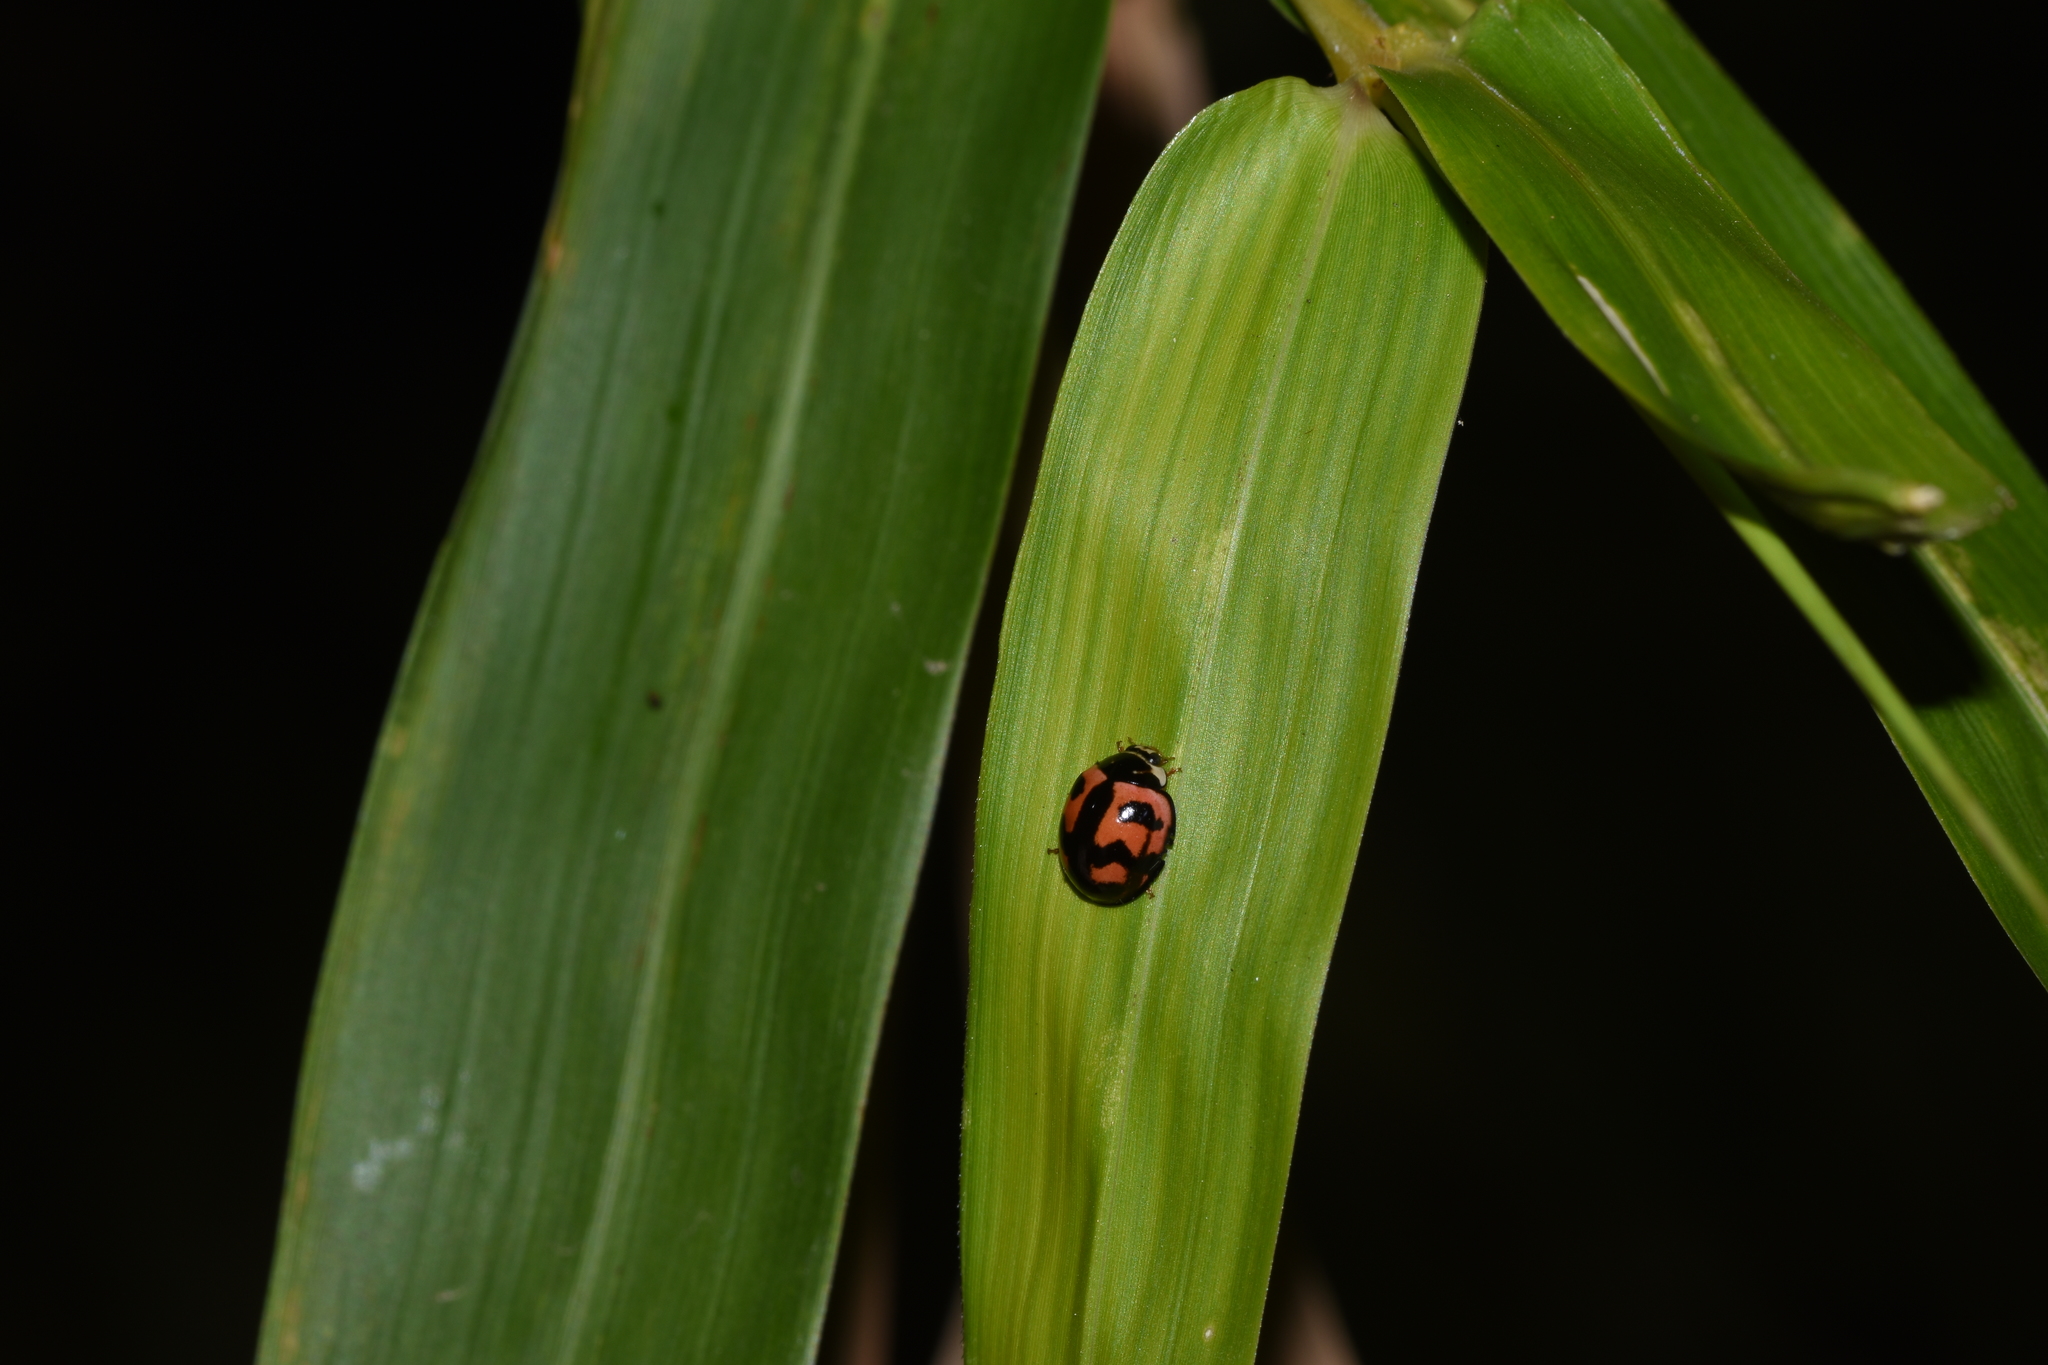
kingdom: Animalia
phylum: Arthropoda
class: Insecta
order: Coleoptera
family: Coccinellidae
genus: Cheilomenes
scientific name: Cheilomenes sexmaculata
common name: Ladybird beetle
